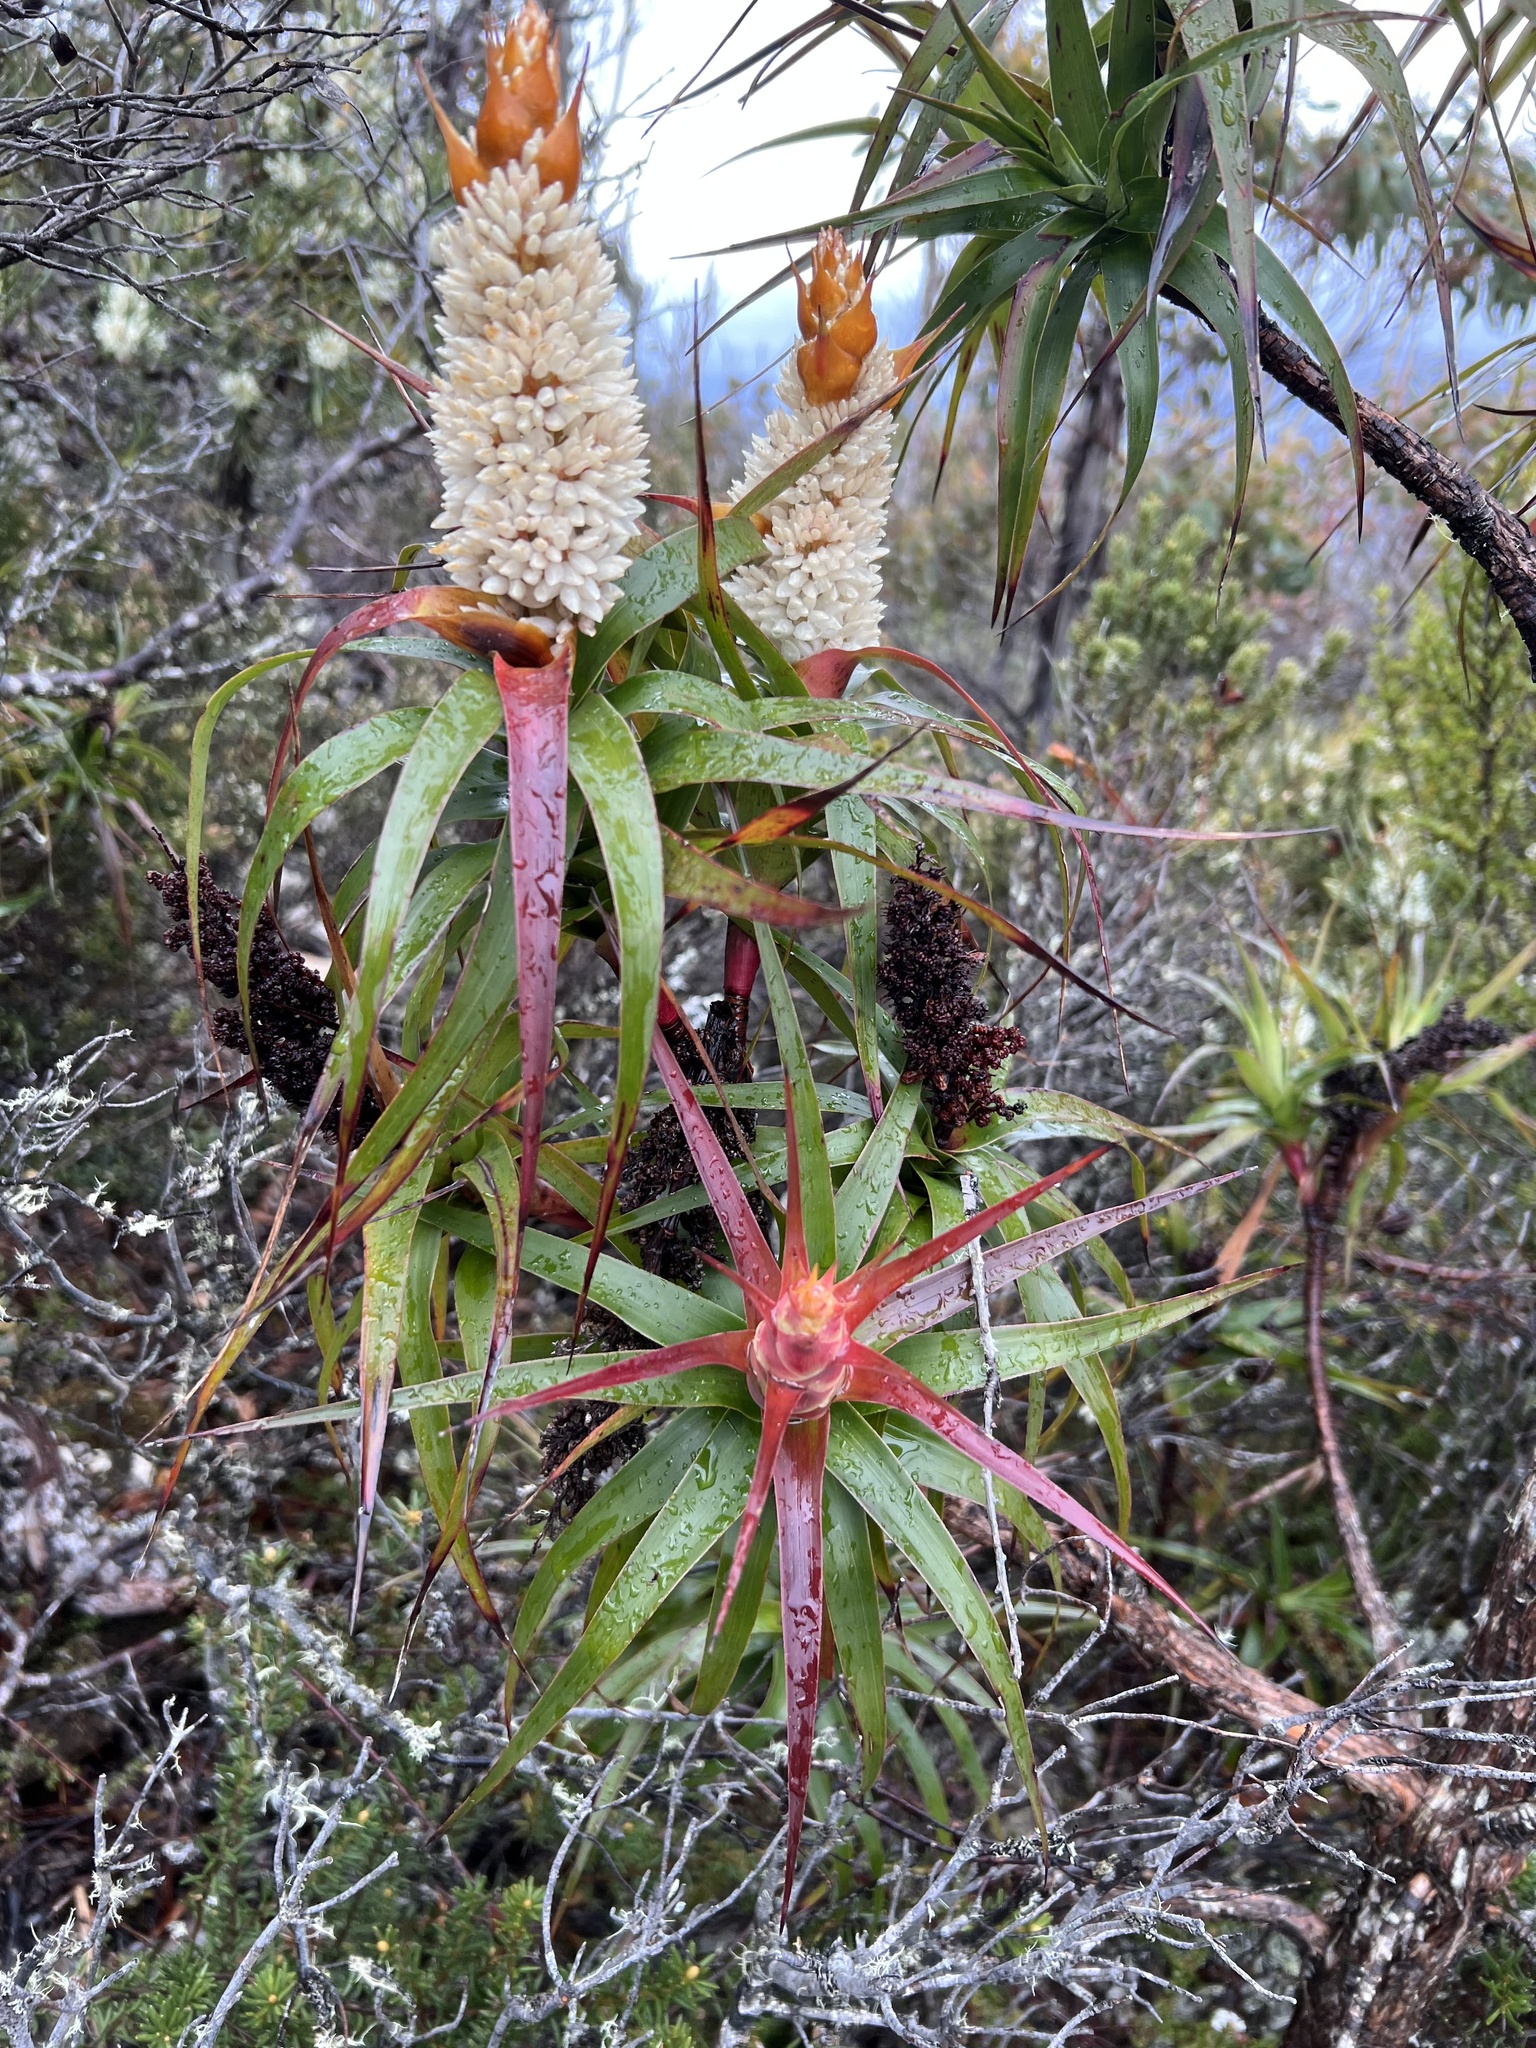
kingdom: Plantae
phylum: Tracheophyta
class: Magnoliopsida
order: Ericales
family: Ericaceae
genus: Dracophyllum
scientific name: Dracophyllum desgrazii
